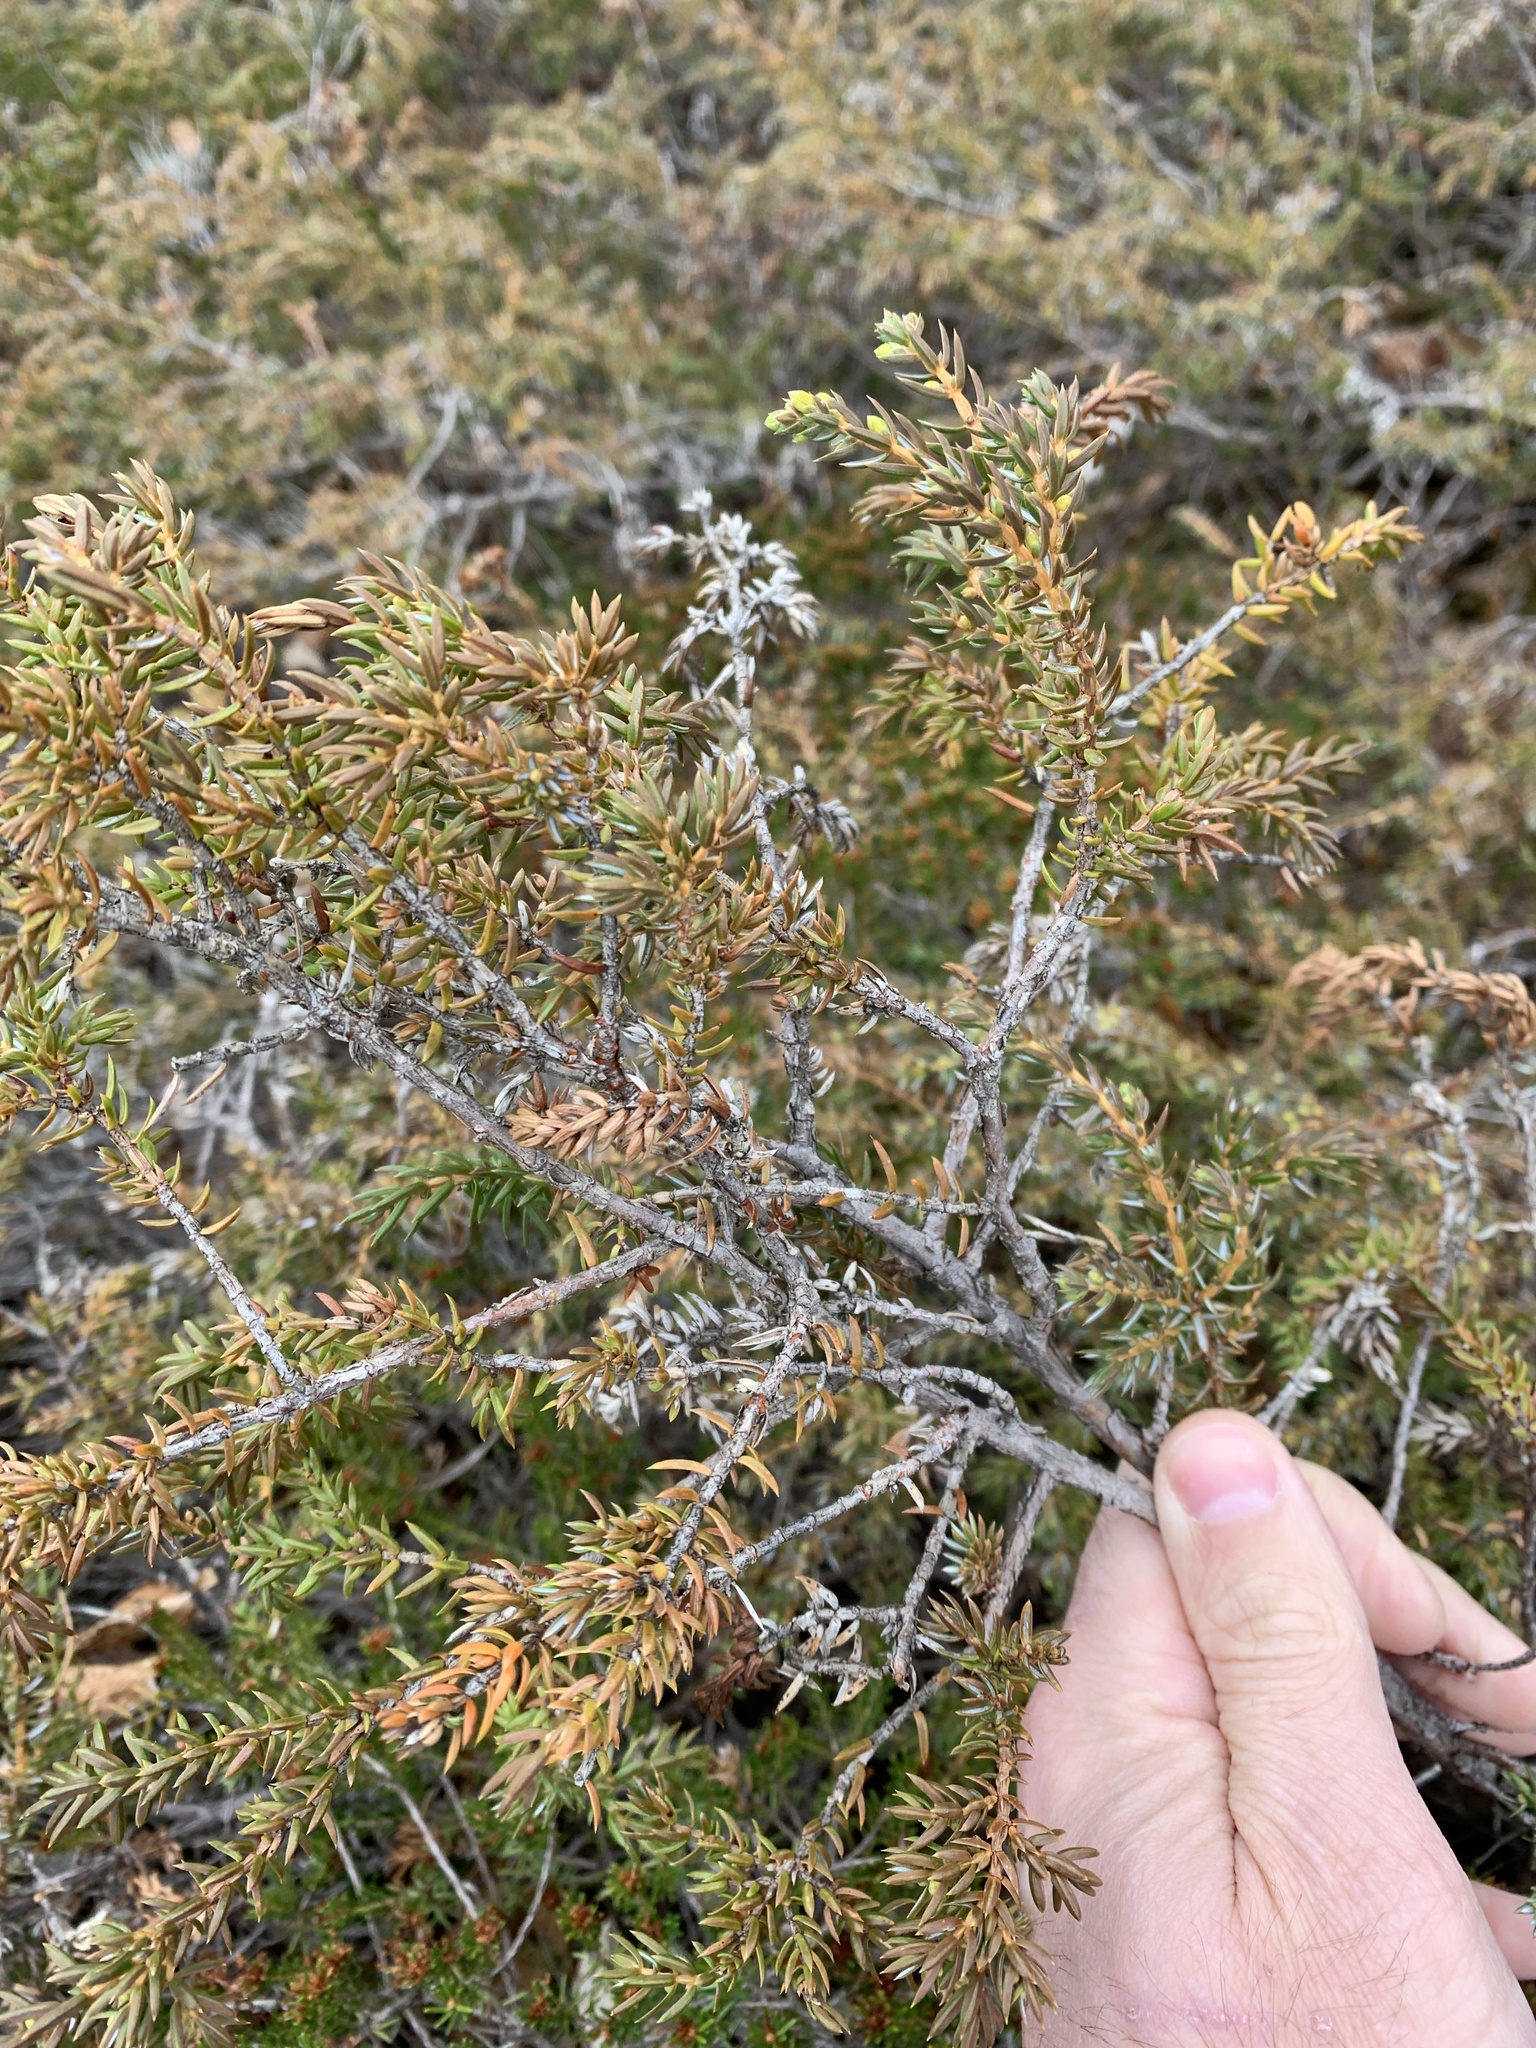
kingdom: Plantae
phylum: Tracheophyta
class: Pinopsida
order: Pinales
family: Cupressaceae
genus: Juniperus
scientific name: Juniperus communis
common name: Common juniper
